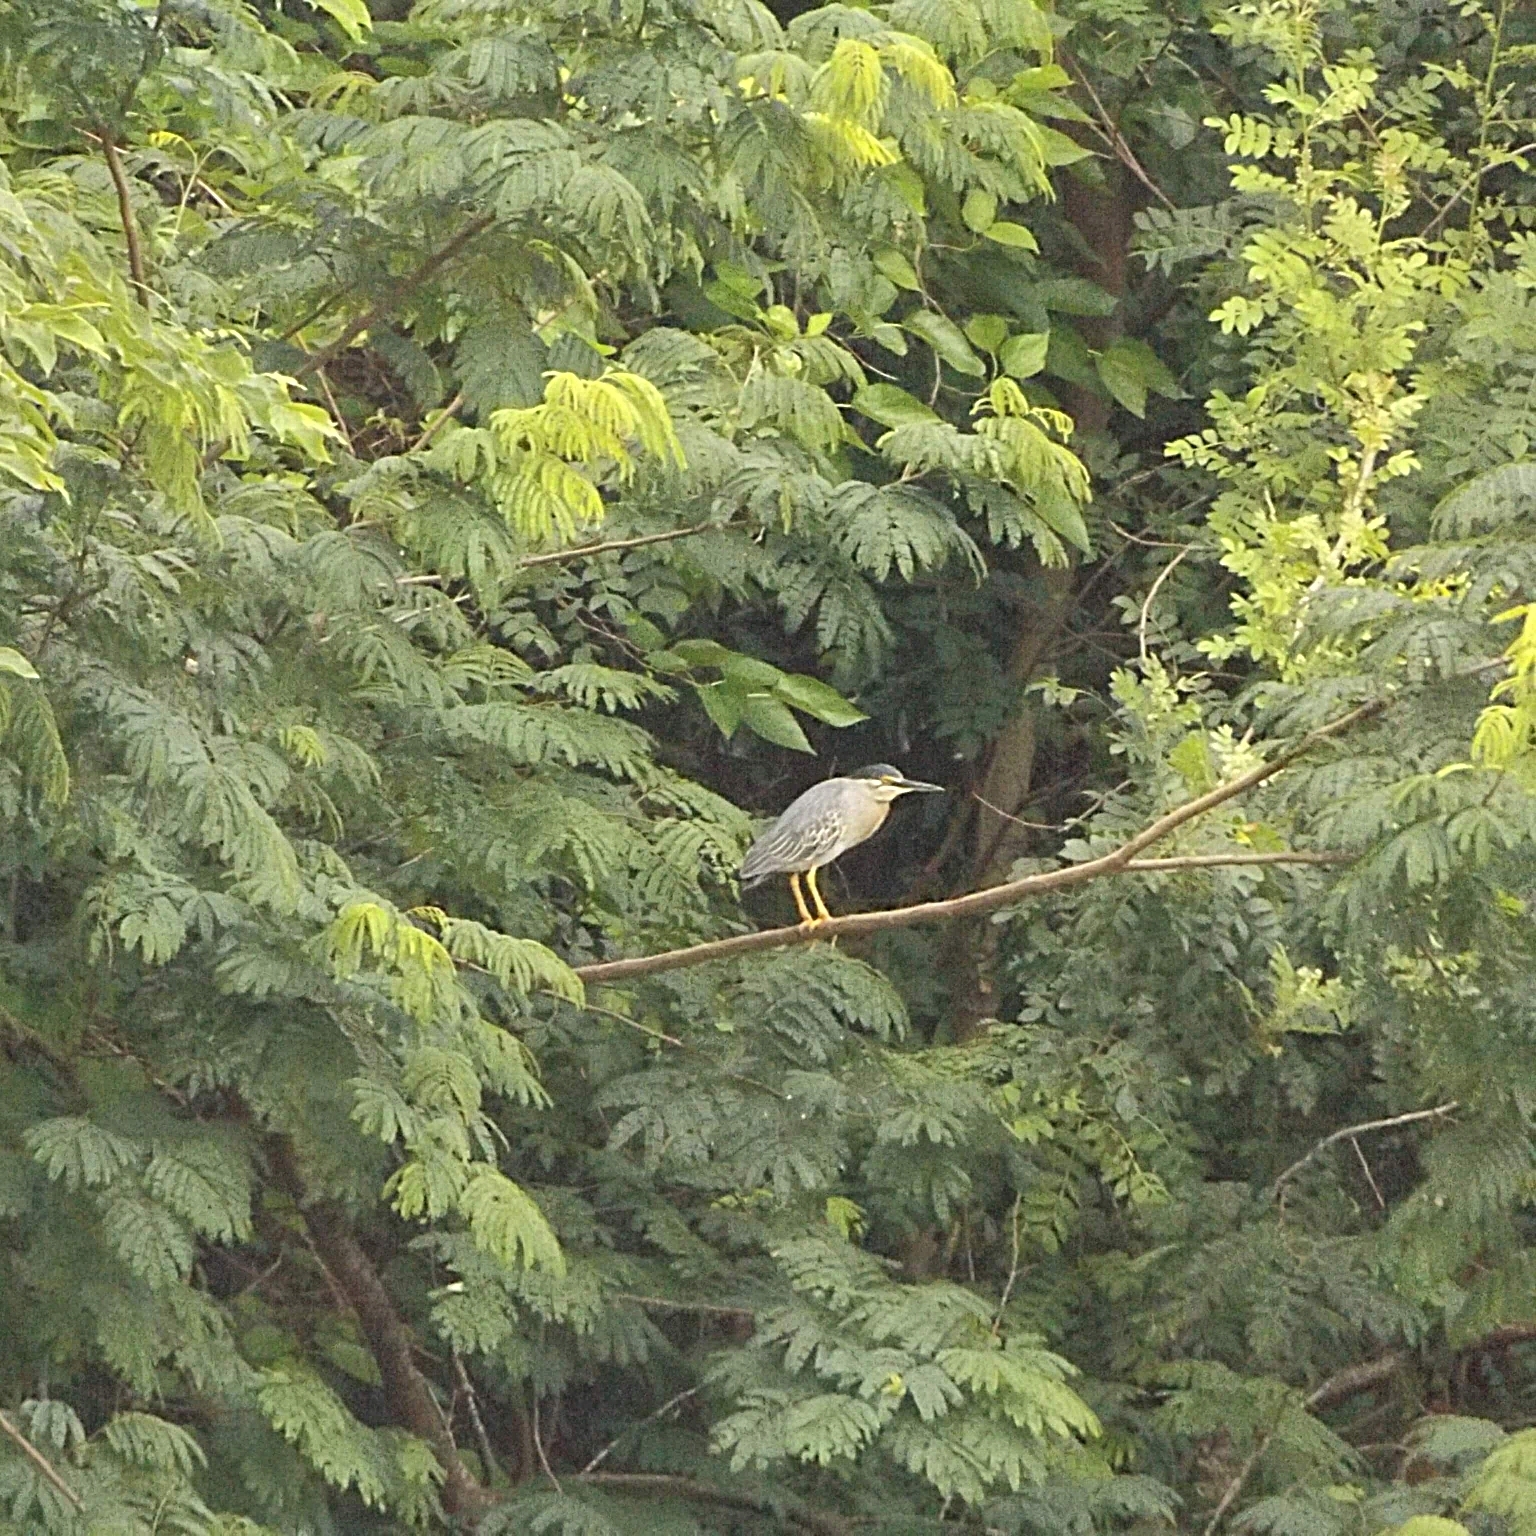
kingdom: Animalia
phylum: Chordata
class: Aves
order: Pelecaniformes
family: Ardeidae
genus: Butorides
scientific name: Butorides striata
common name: Striated heron
